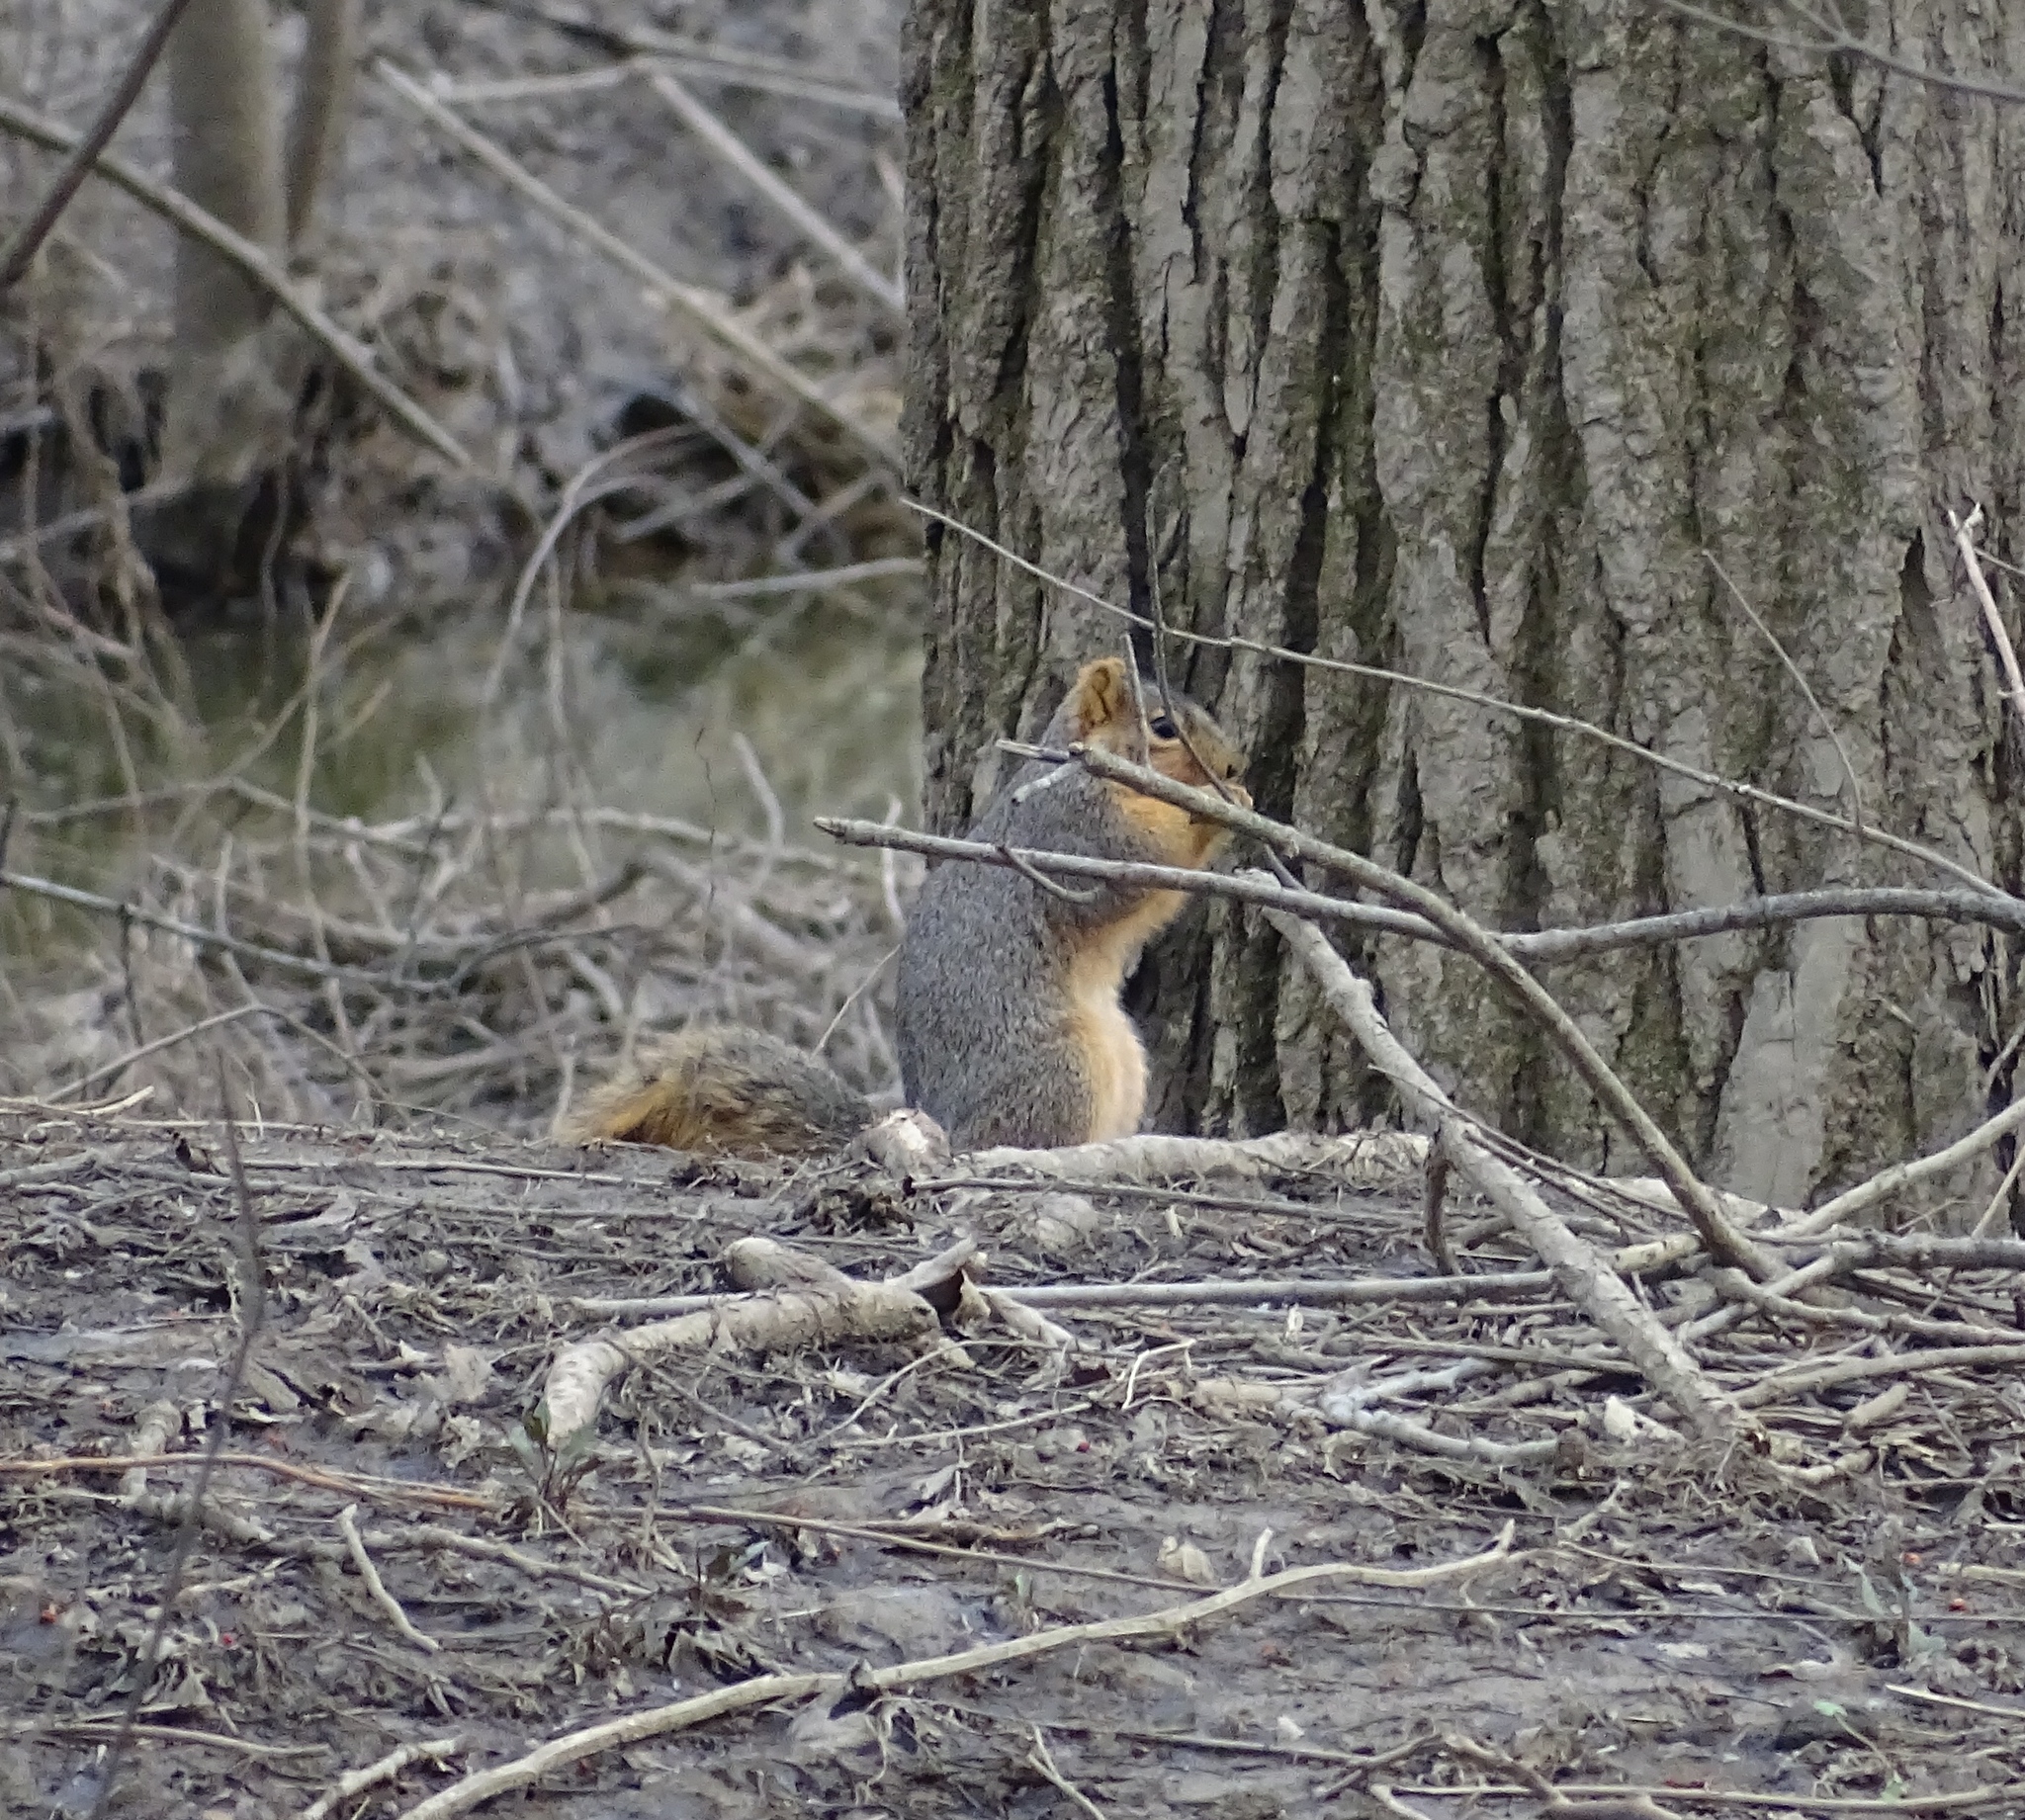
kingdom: Animalia
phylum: Chordata
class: Mammalia
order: Rodentia
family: Sciuridae
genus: Sciurus
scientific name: Sciurus niger
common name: Fox squirrel
